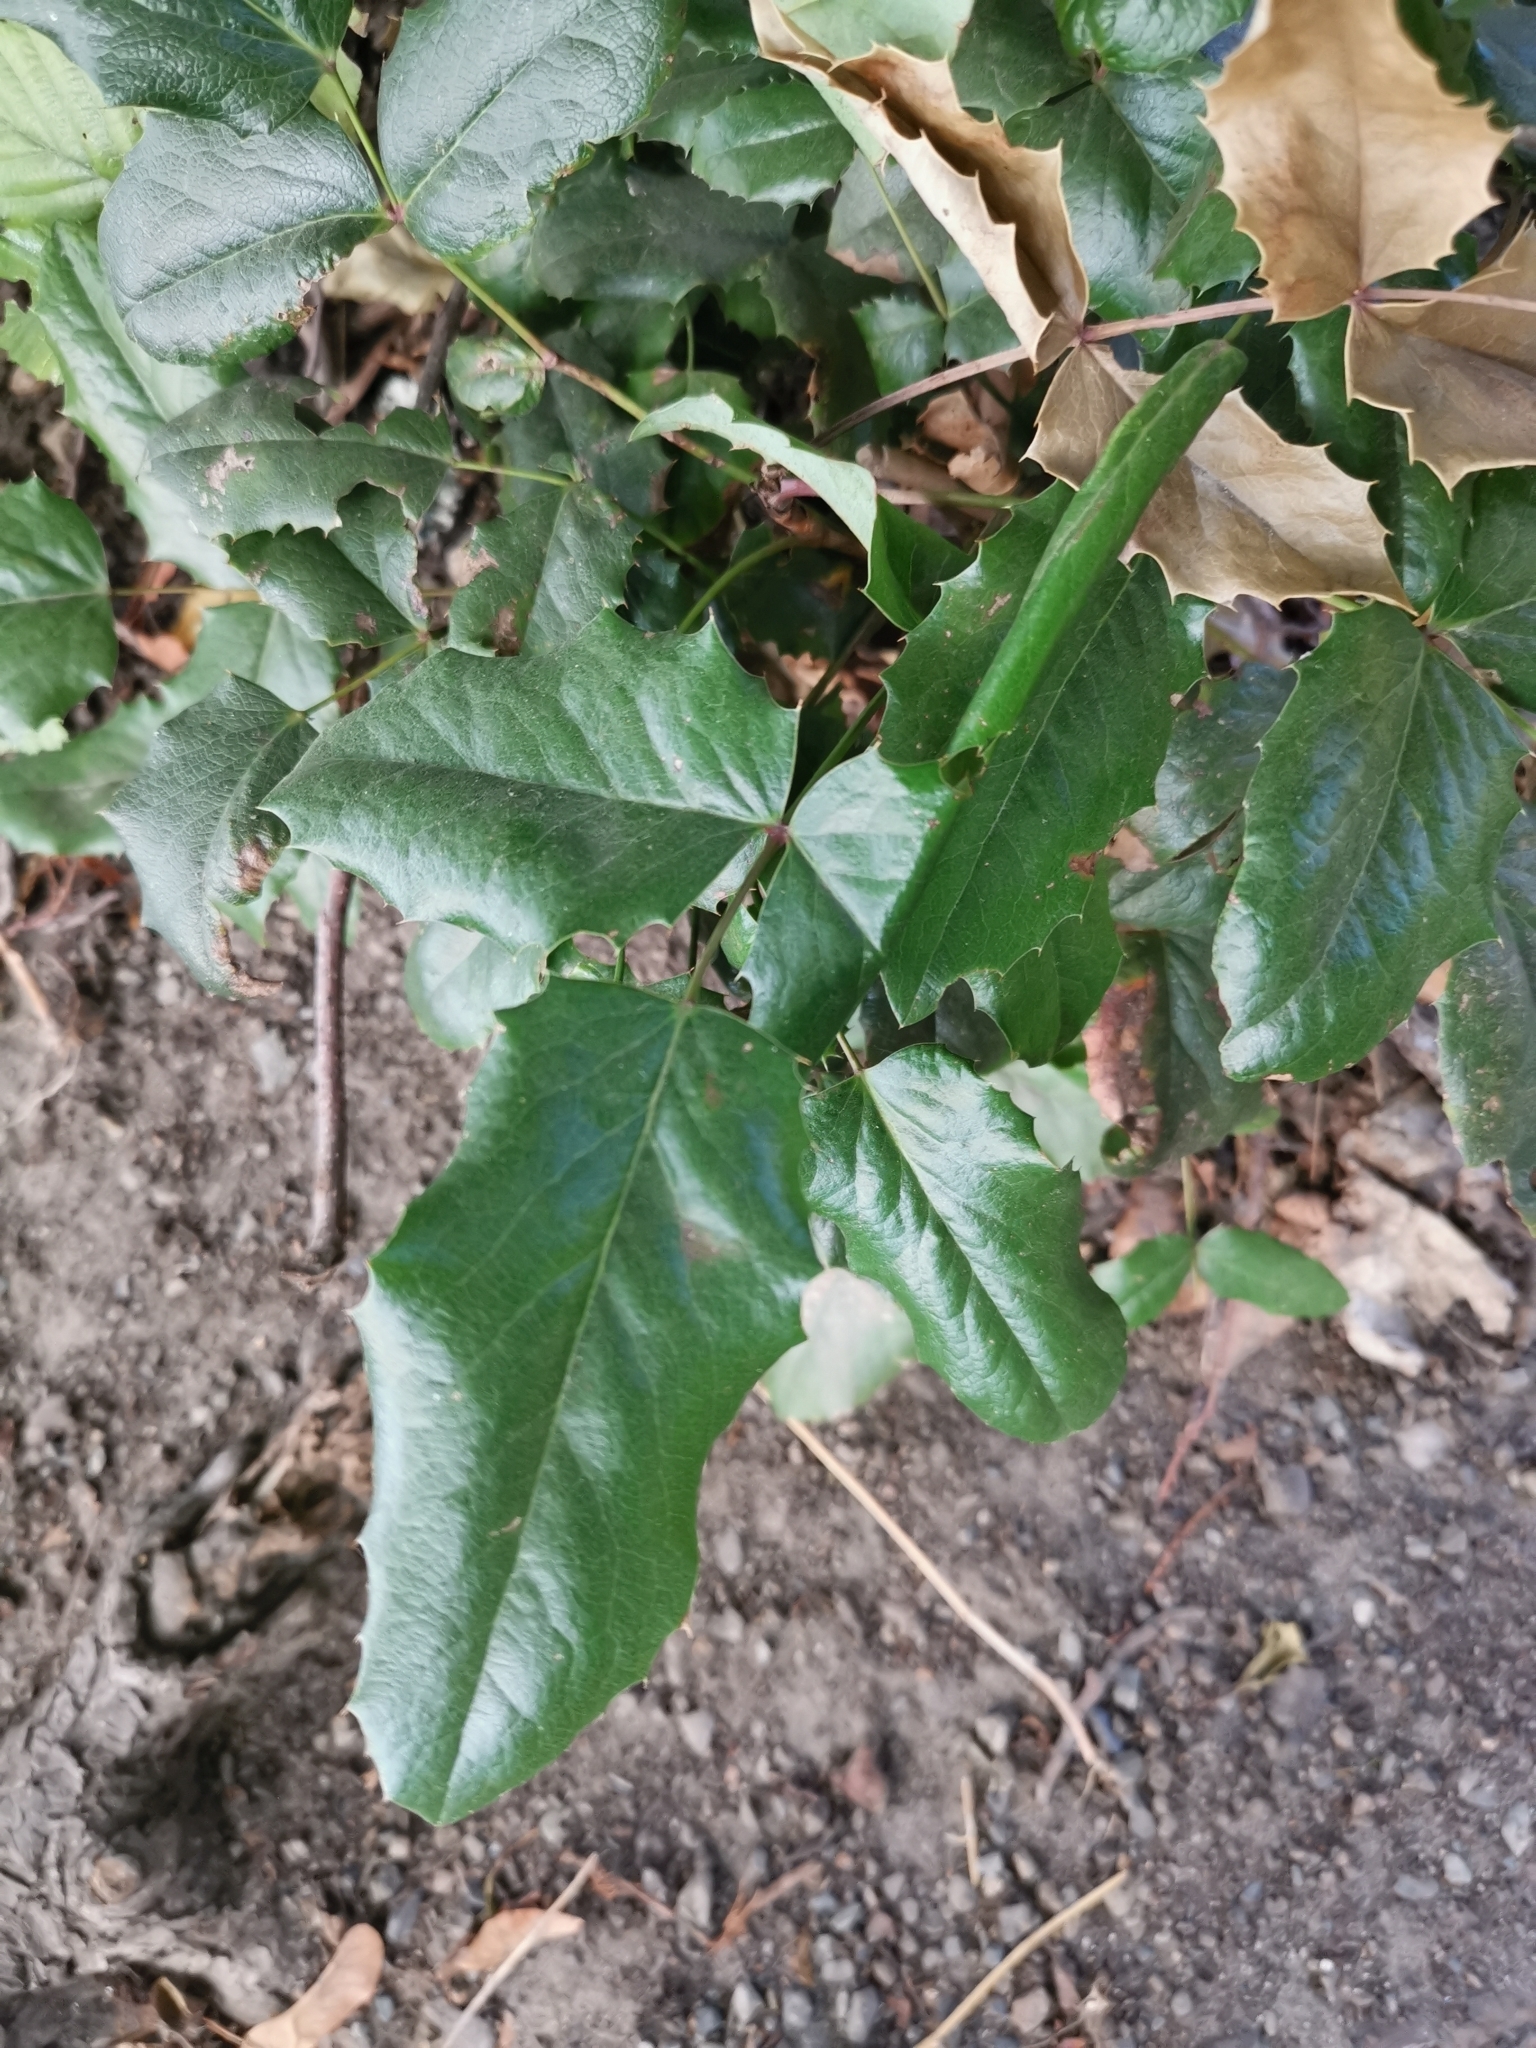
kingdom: Plantae
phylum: Tracheophyta
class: Magnoliopsida
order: Ranunculales
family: Berberidaceae
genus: Mahonia
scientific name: Mahonia aquifolium
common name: Oregon-grape
